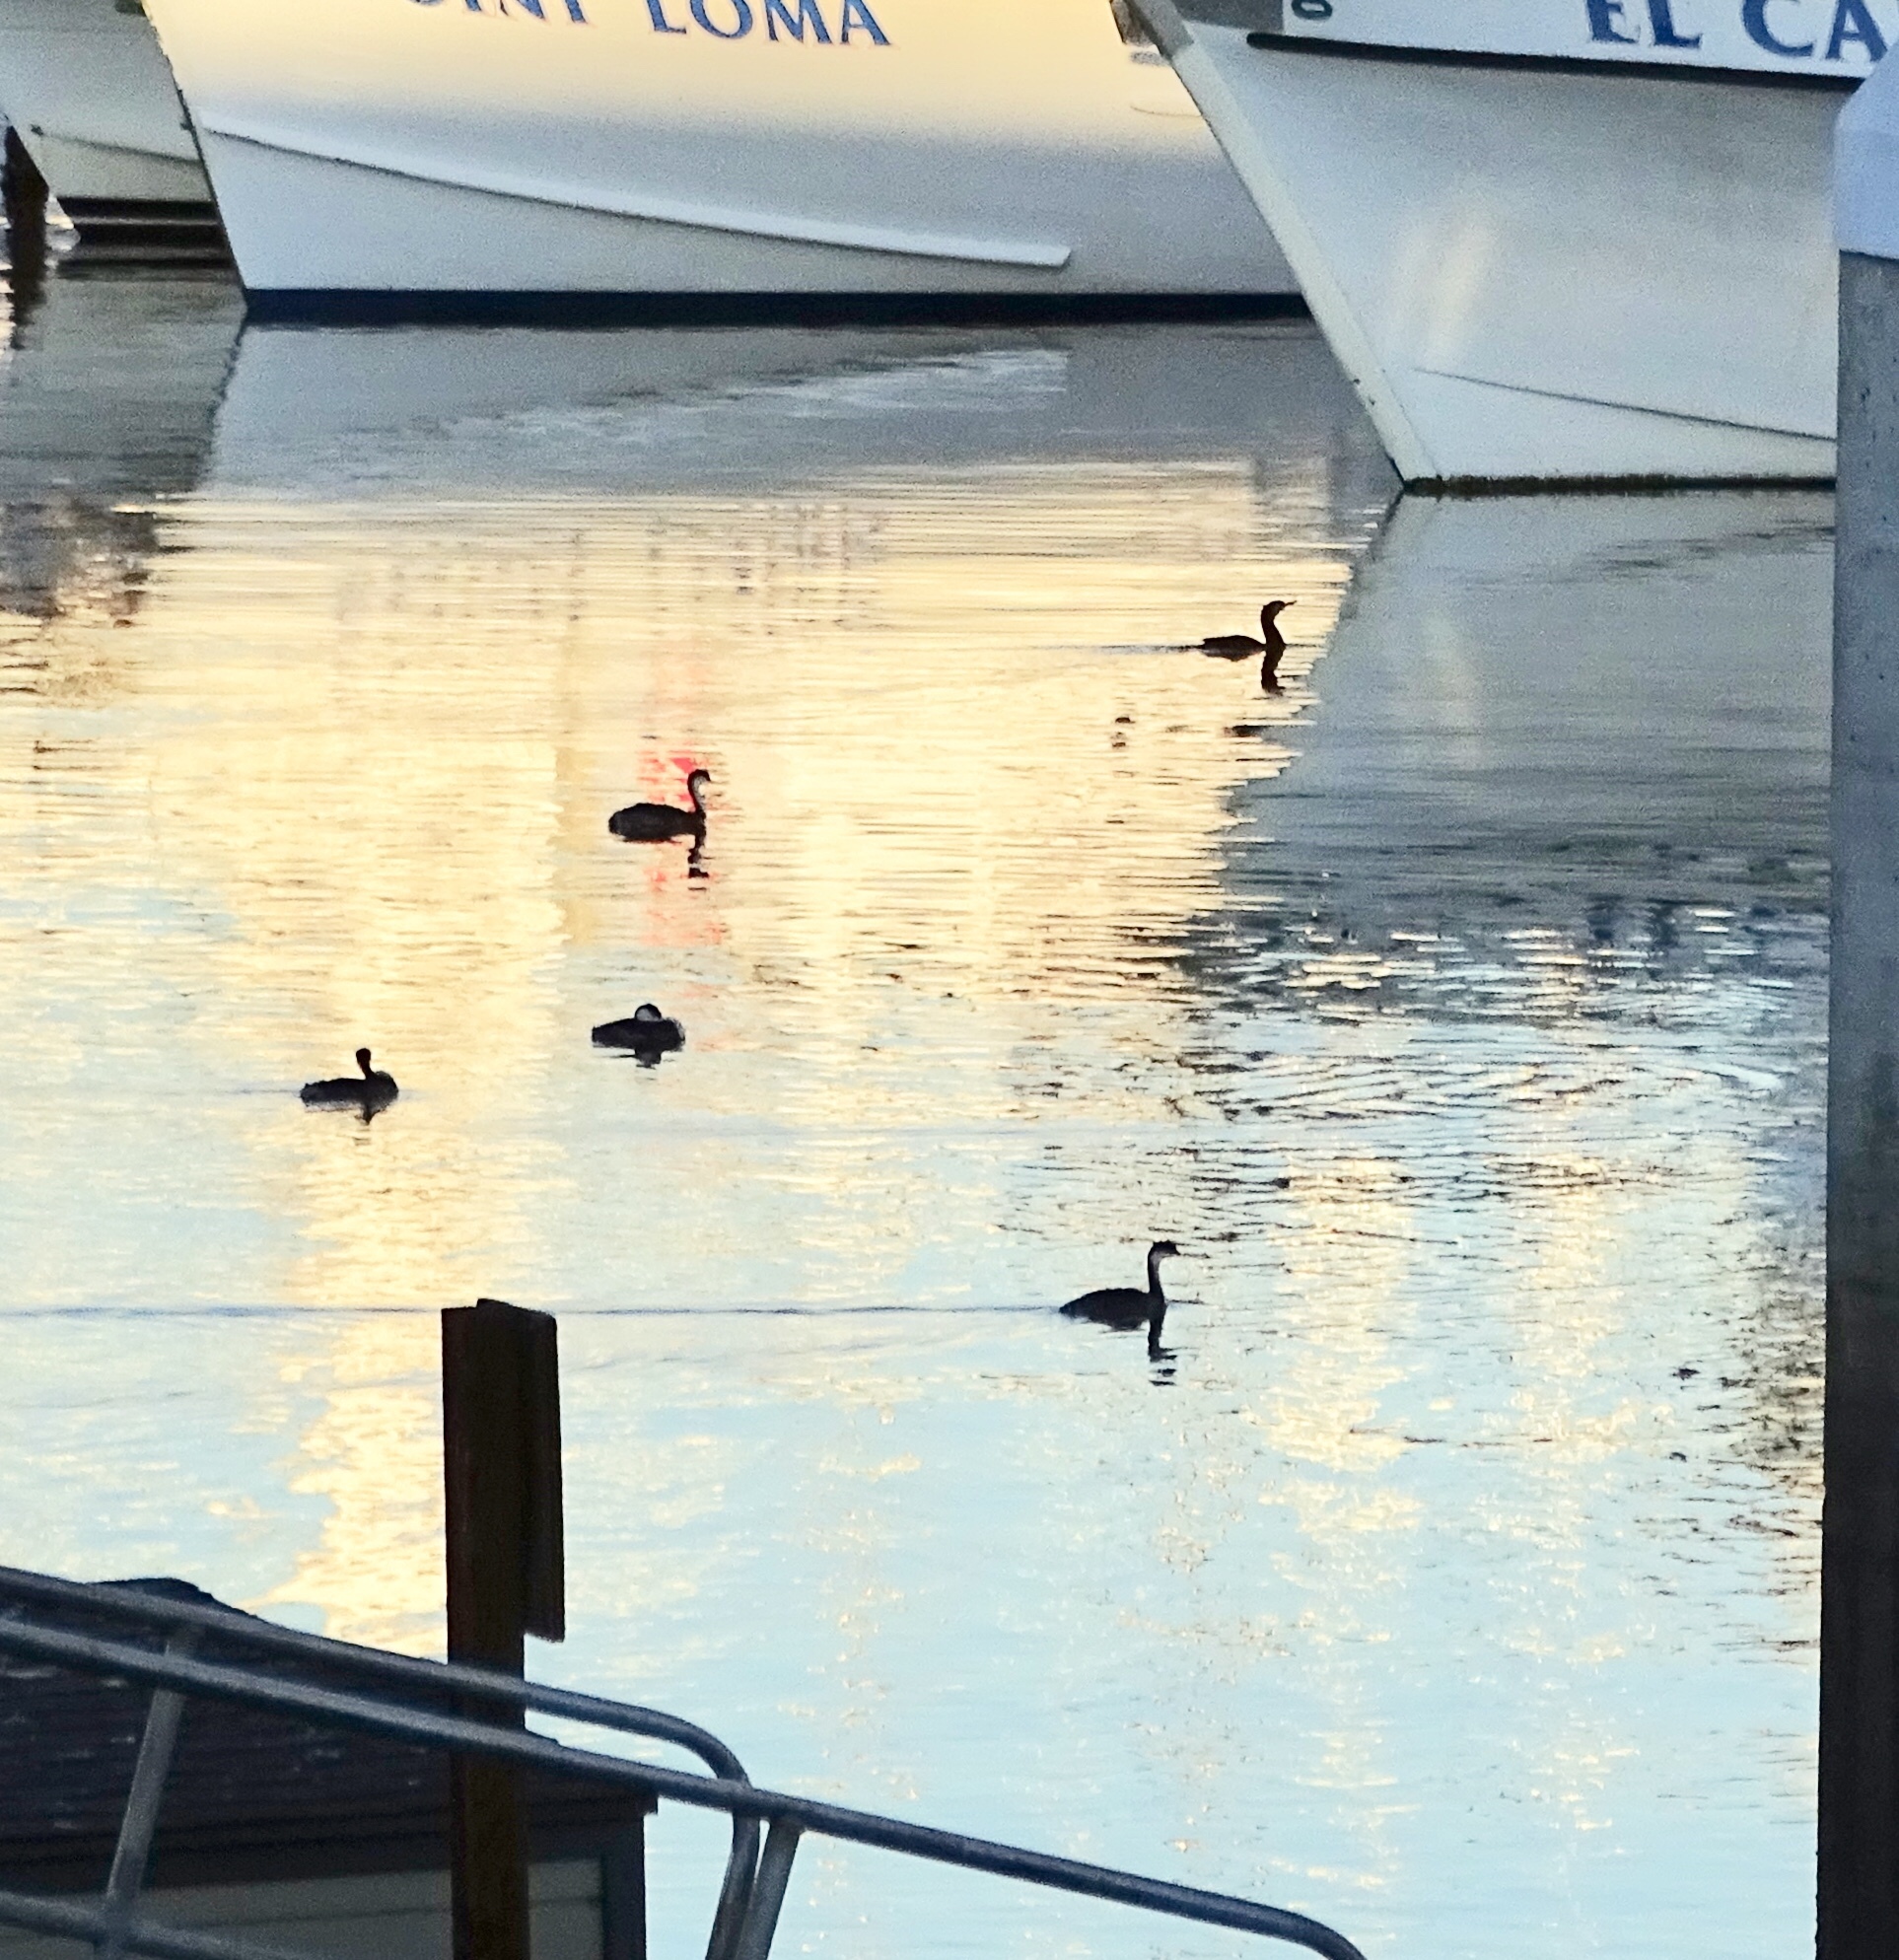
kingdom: Animalia
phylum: Chordata
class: Aves
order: Podicipediformes
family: Podicipedidae
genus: Aechmophorus
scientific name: Aechmophorus occidentalis
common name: Western grebe
